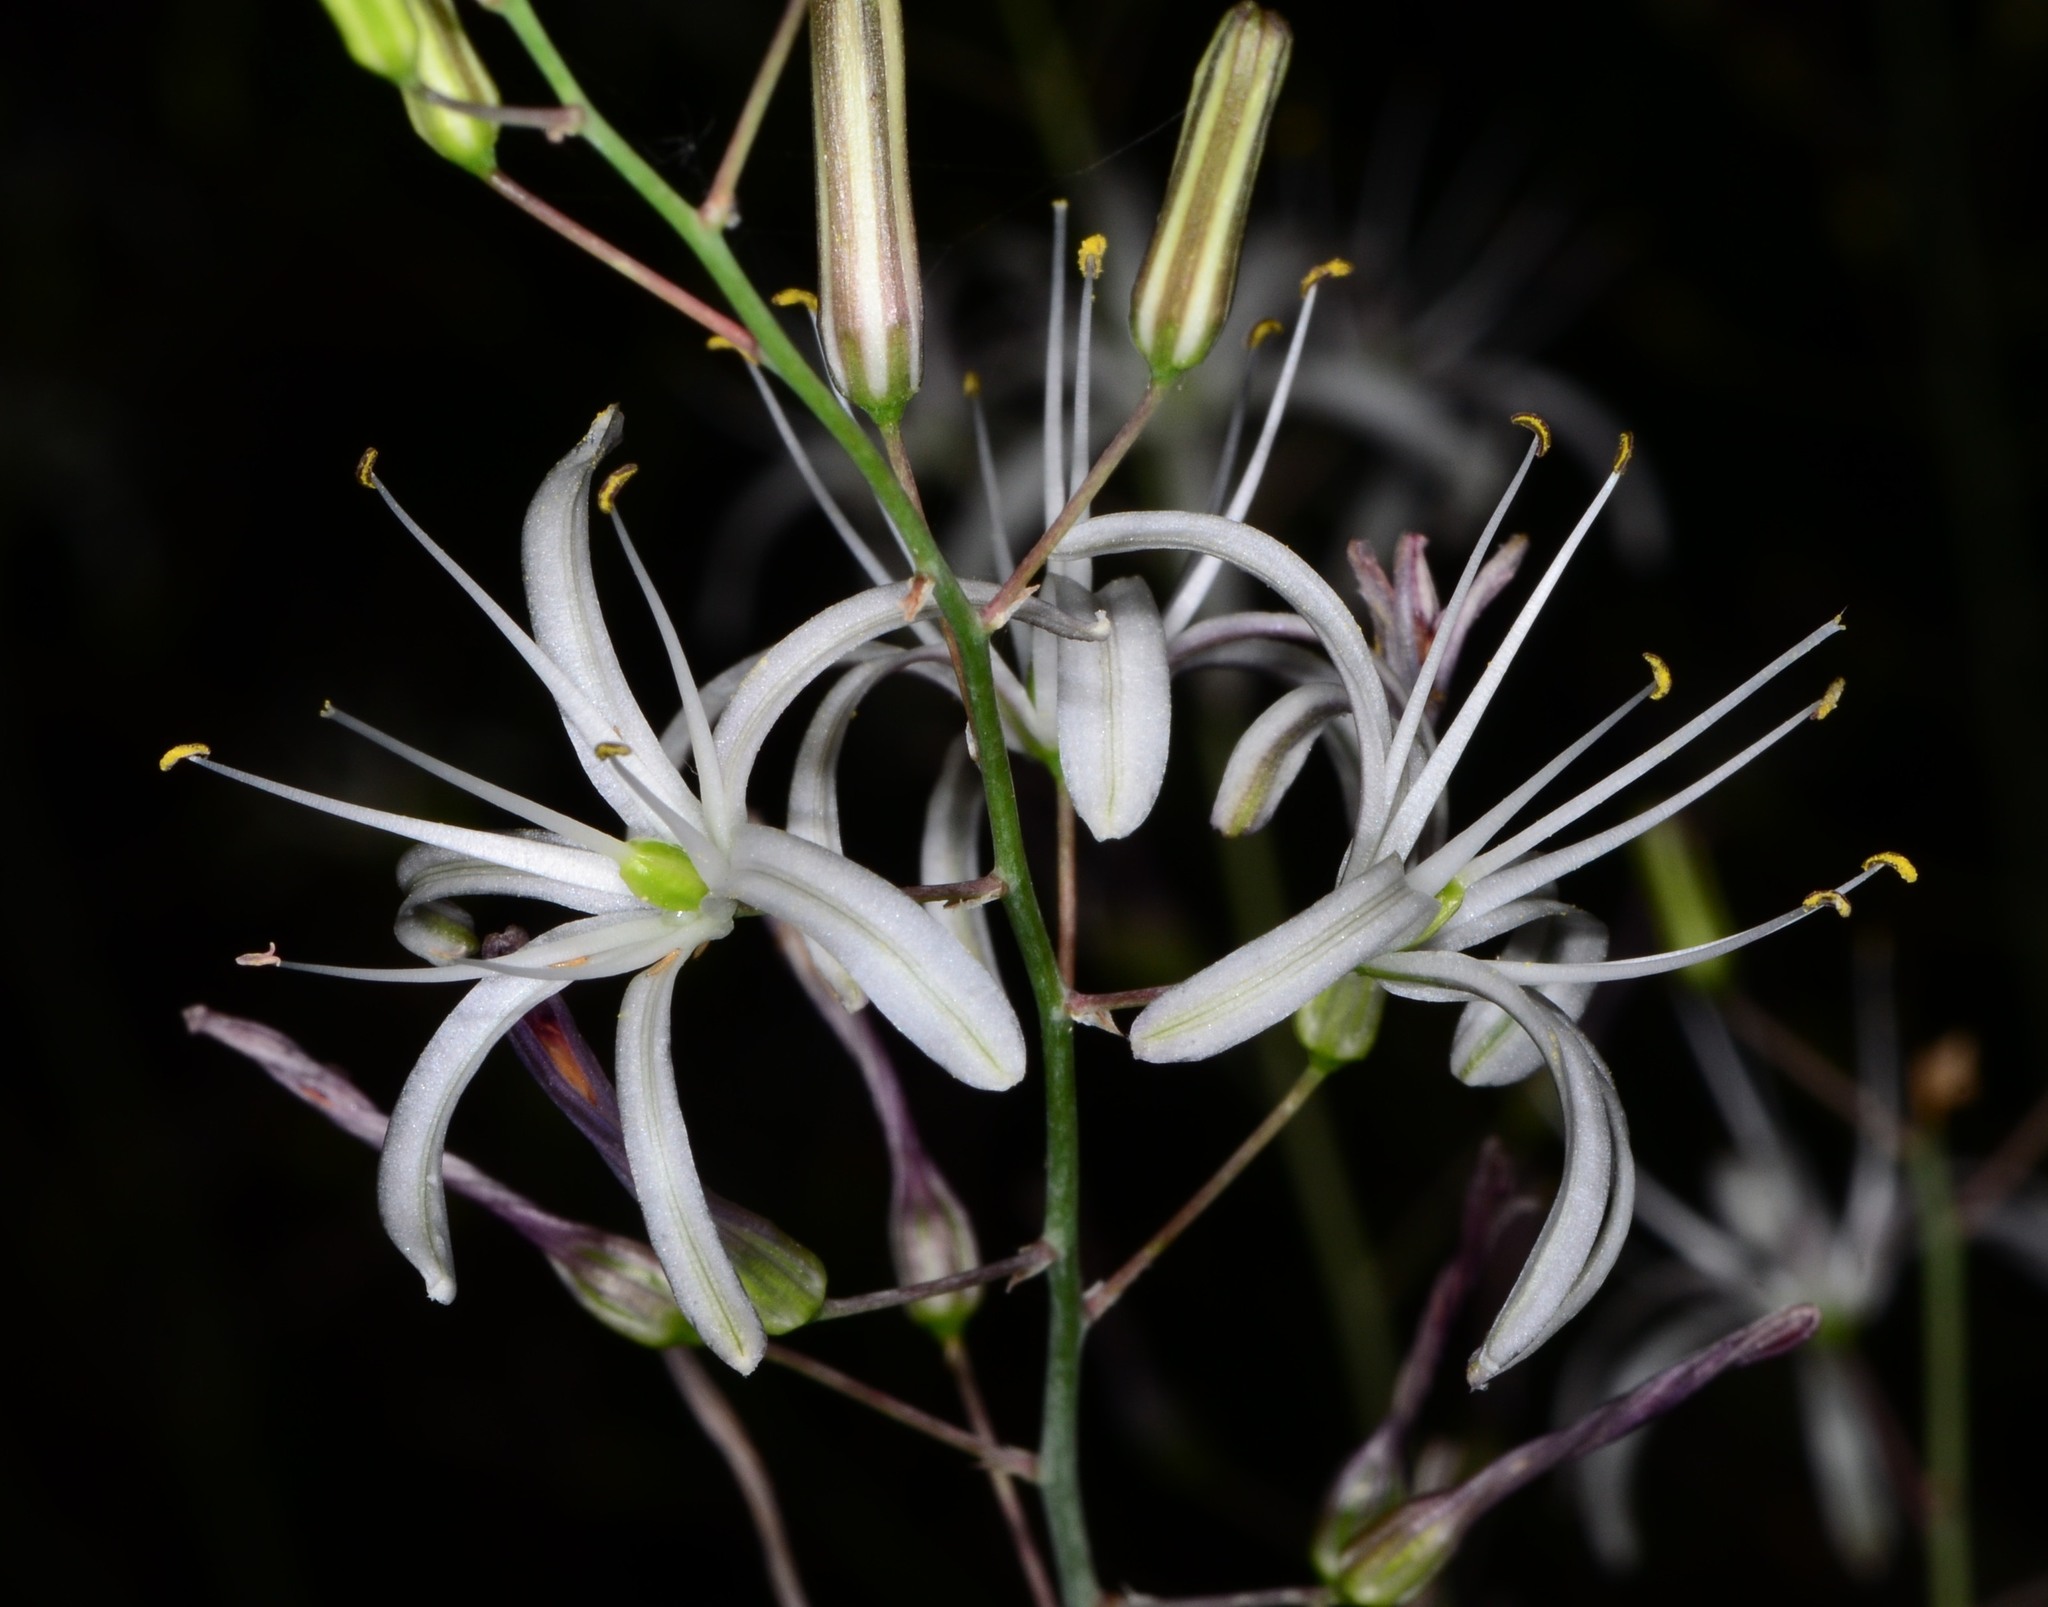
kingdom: Plantae
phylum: Tracheophyta
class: Liliopsida
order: Asparagales
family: Asparagaceae
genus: Chlorogalum
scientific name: Chlorogalum pomeridianum
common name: Amole
